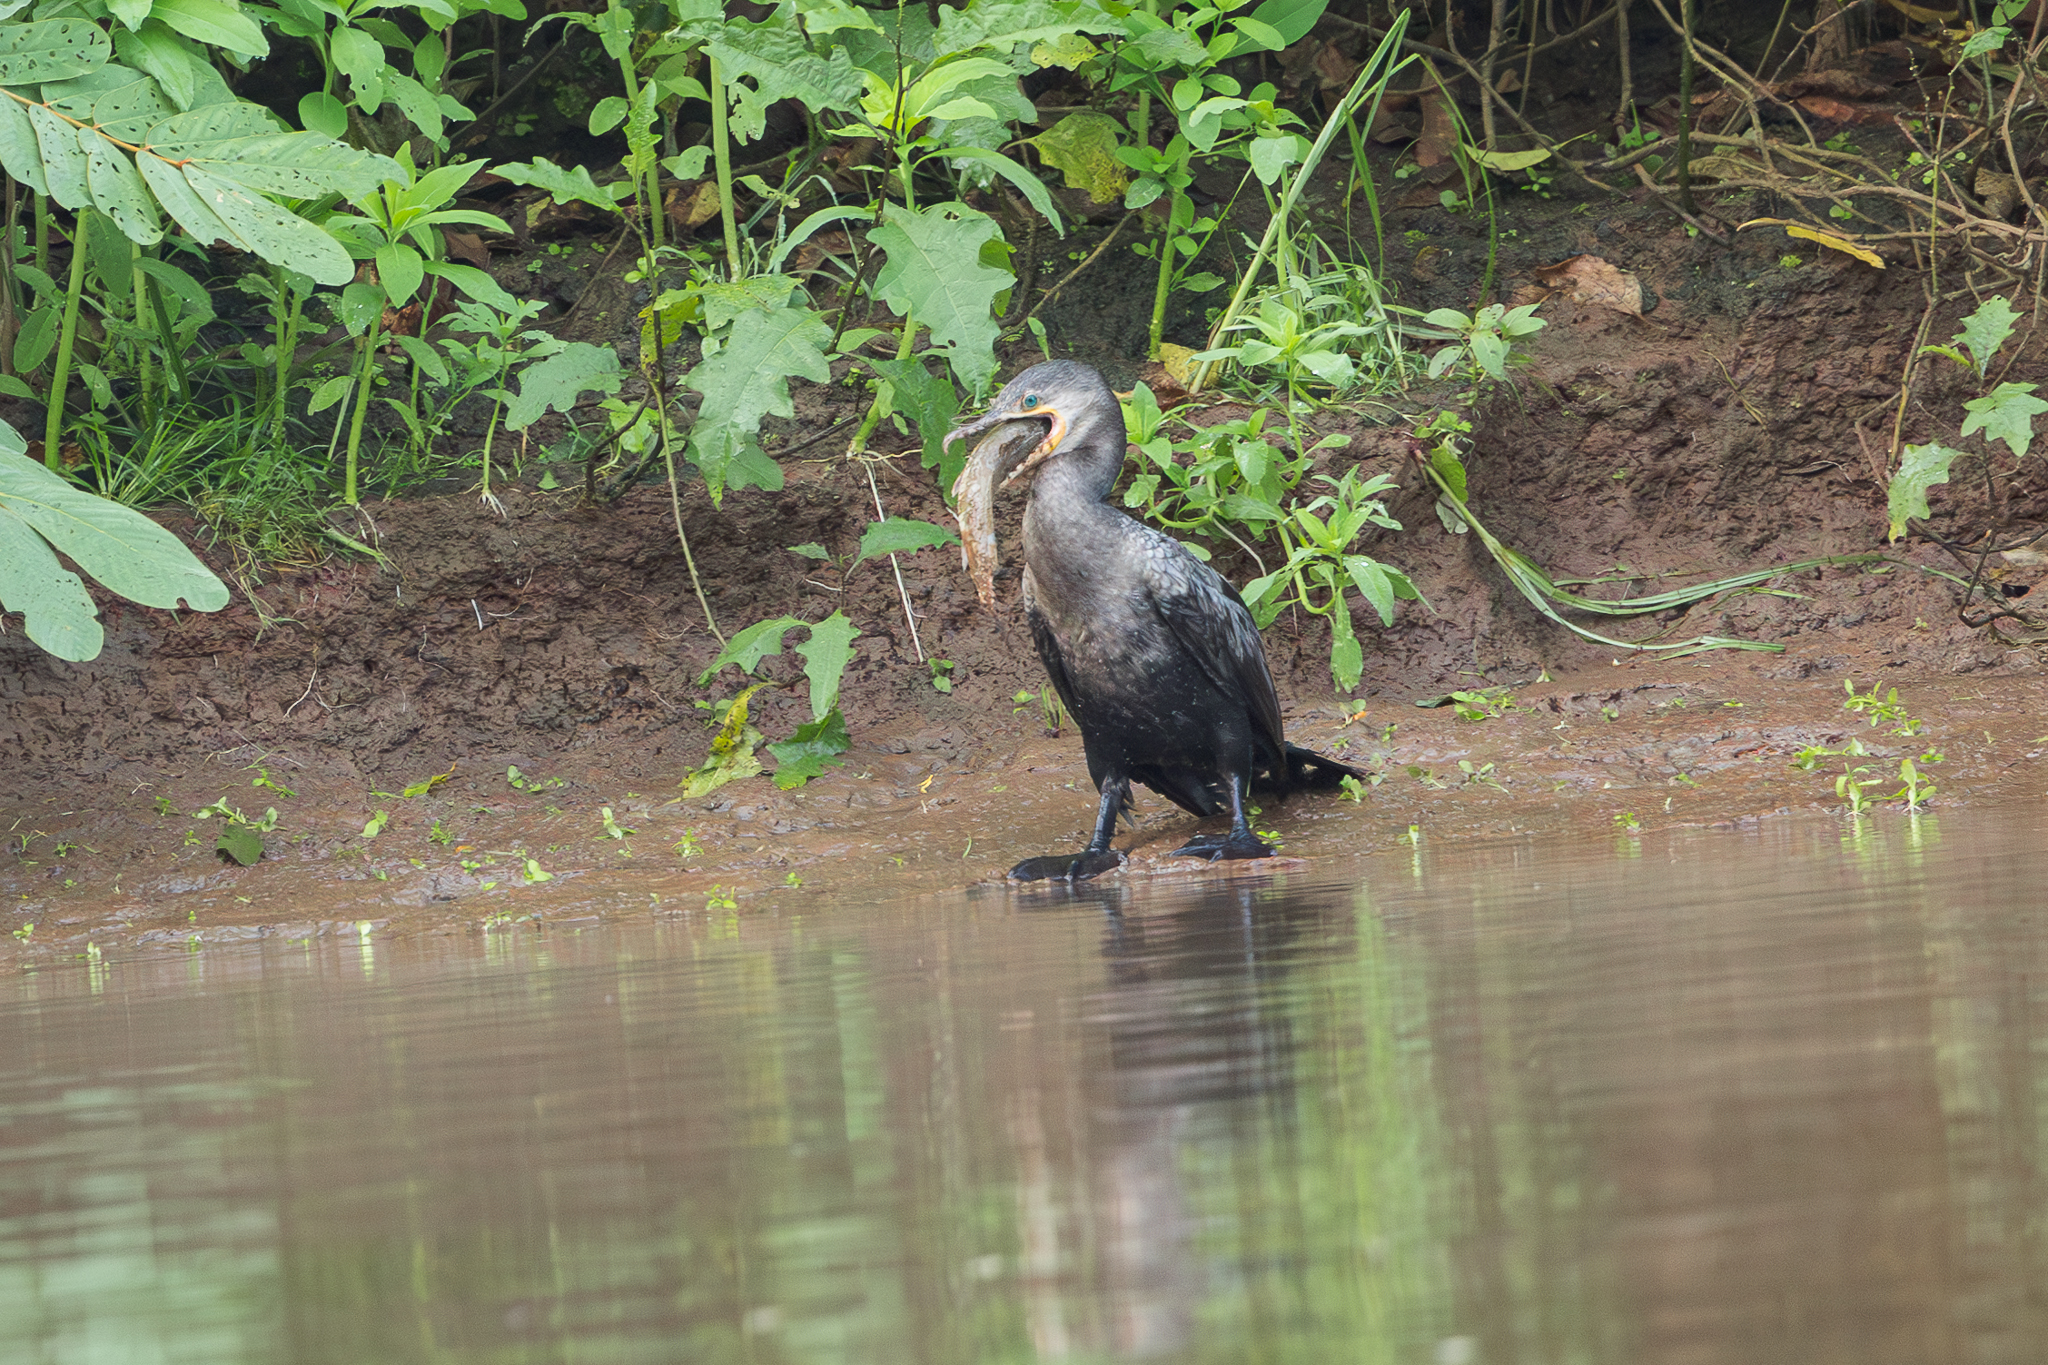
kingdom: Animalia
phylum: Chordata
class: Aves
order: Suliformes
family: Phalacrocoracidae
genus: Phalacrocorax
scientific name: Phalacrocorax brasilianus
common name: Neotropic cormorant
